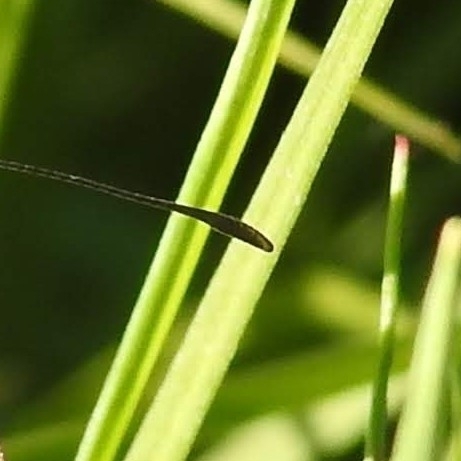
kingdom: Animalia
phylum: Arthropoda
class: Insecta
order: Lepidoptera
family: Nymphalidae
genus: Erebia
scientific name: Erebia medusa
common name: Woodland ringlet
